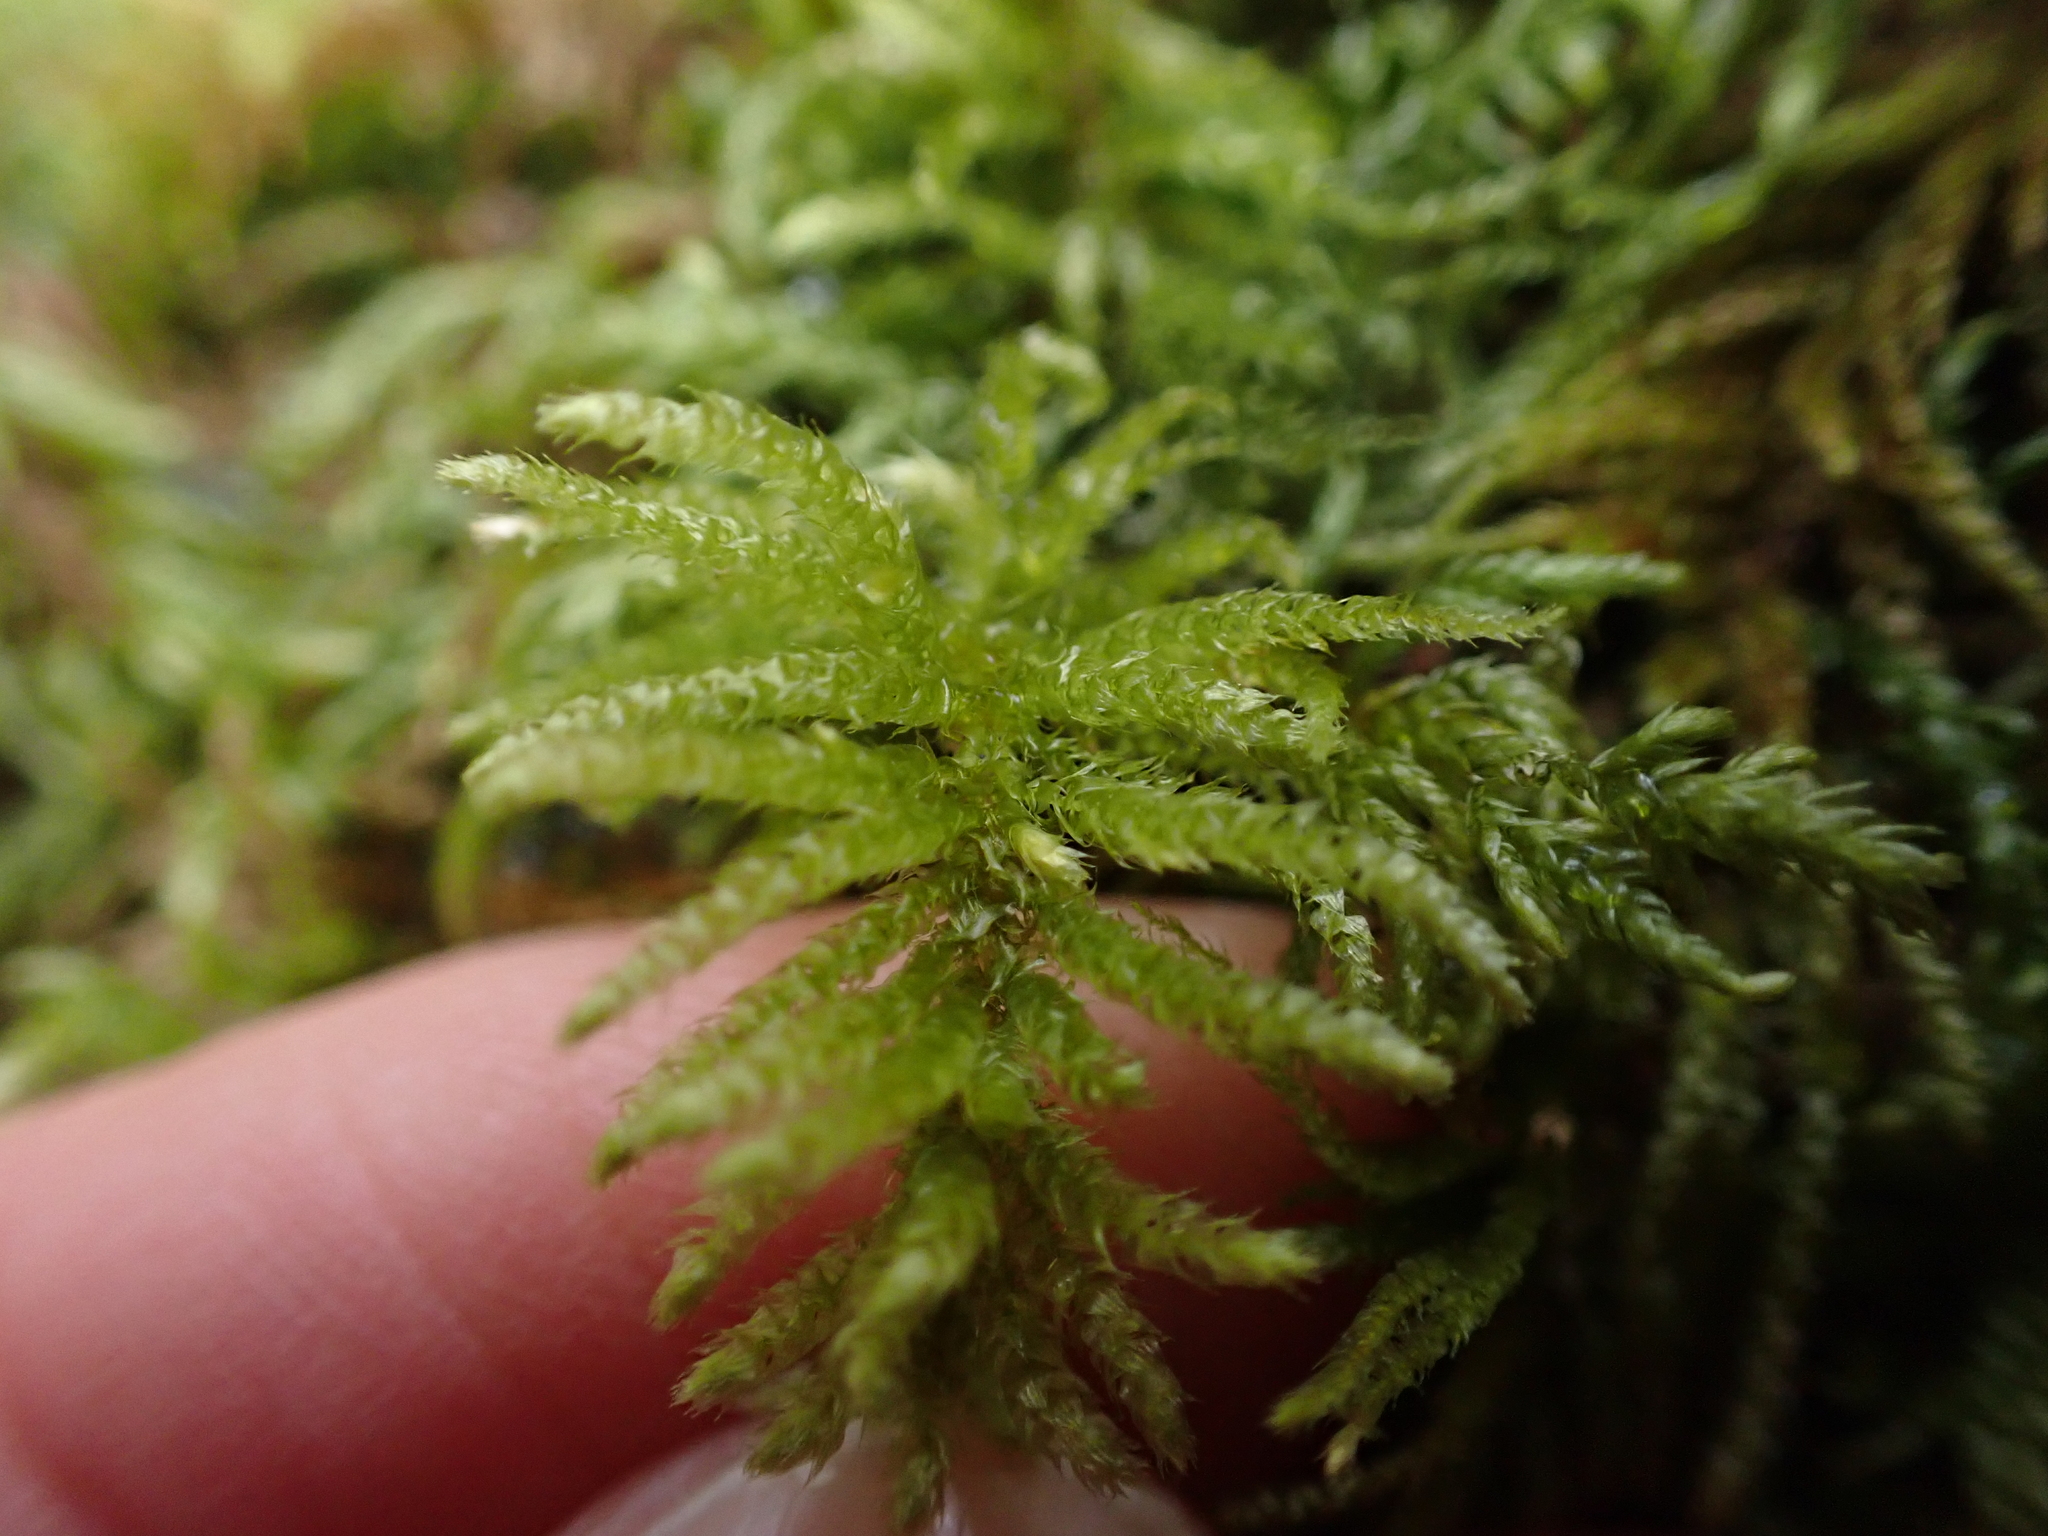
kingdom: Plantae
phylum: Bryophyta
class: Bryopsida
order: Hypnales
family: Brachytheciaceae
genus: Kindbergia
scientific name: Kindbergia oregana
